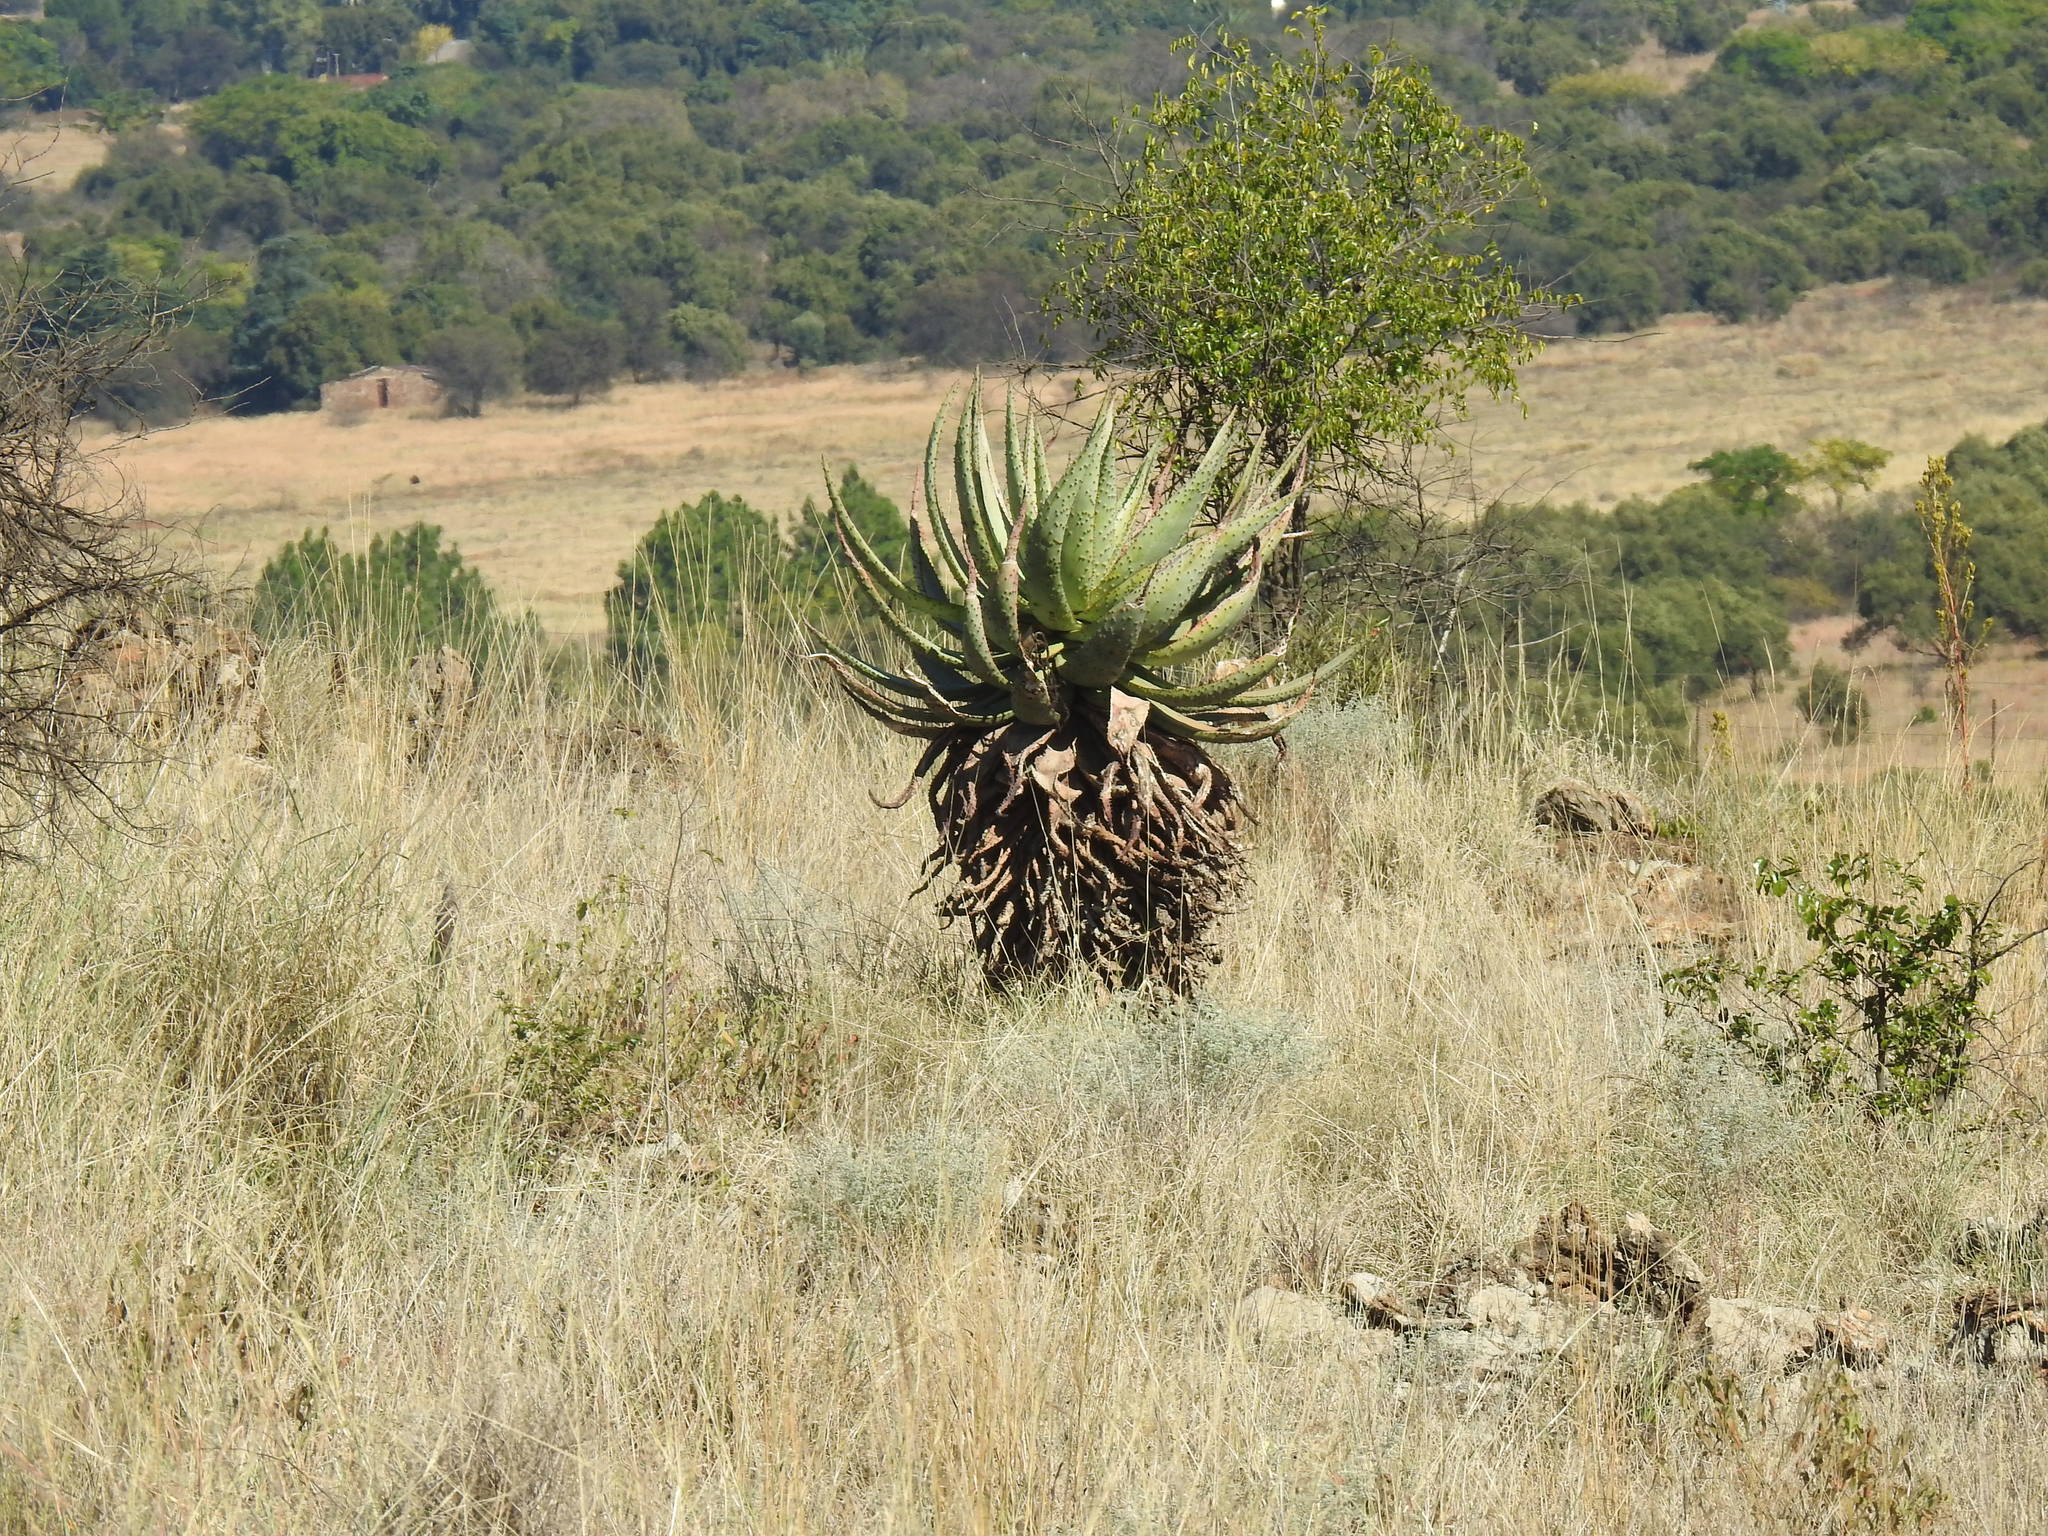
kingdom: Plantae
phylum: Tracheophyta
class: Liliopsida
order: Asparagales
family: Asphodelaceae
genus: Aloe
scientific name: Aloe marlothii
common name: Flat-flowered aloe
